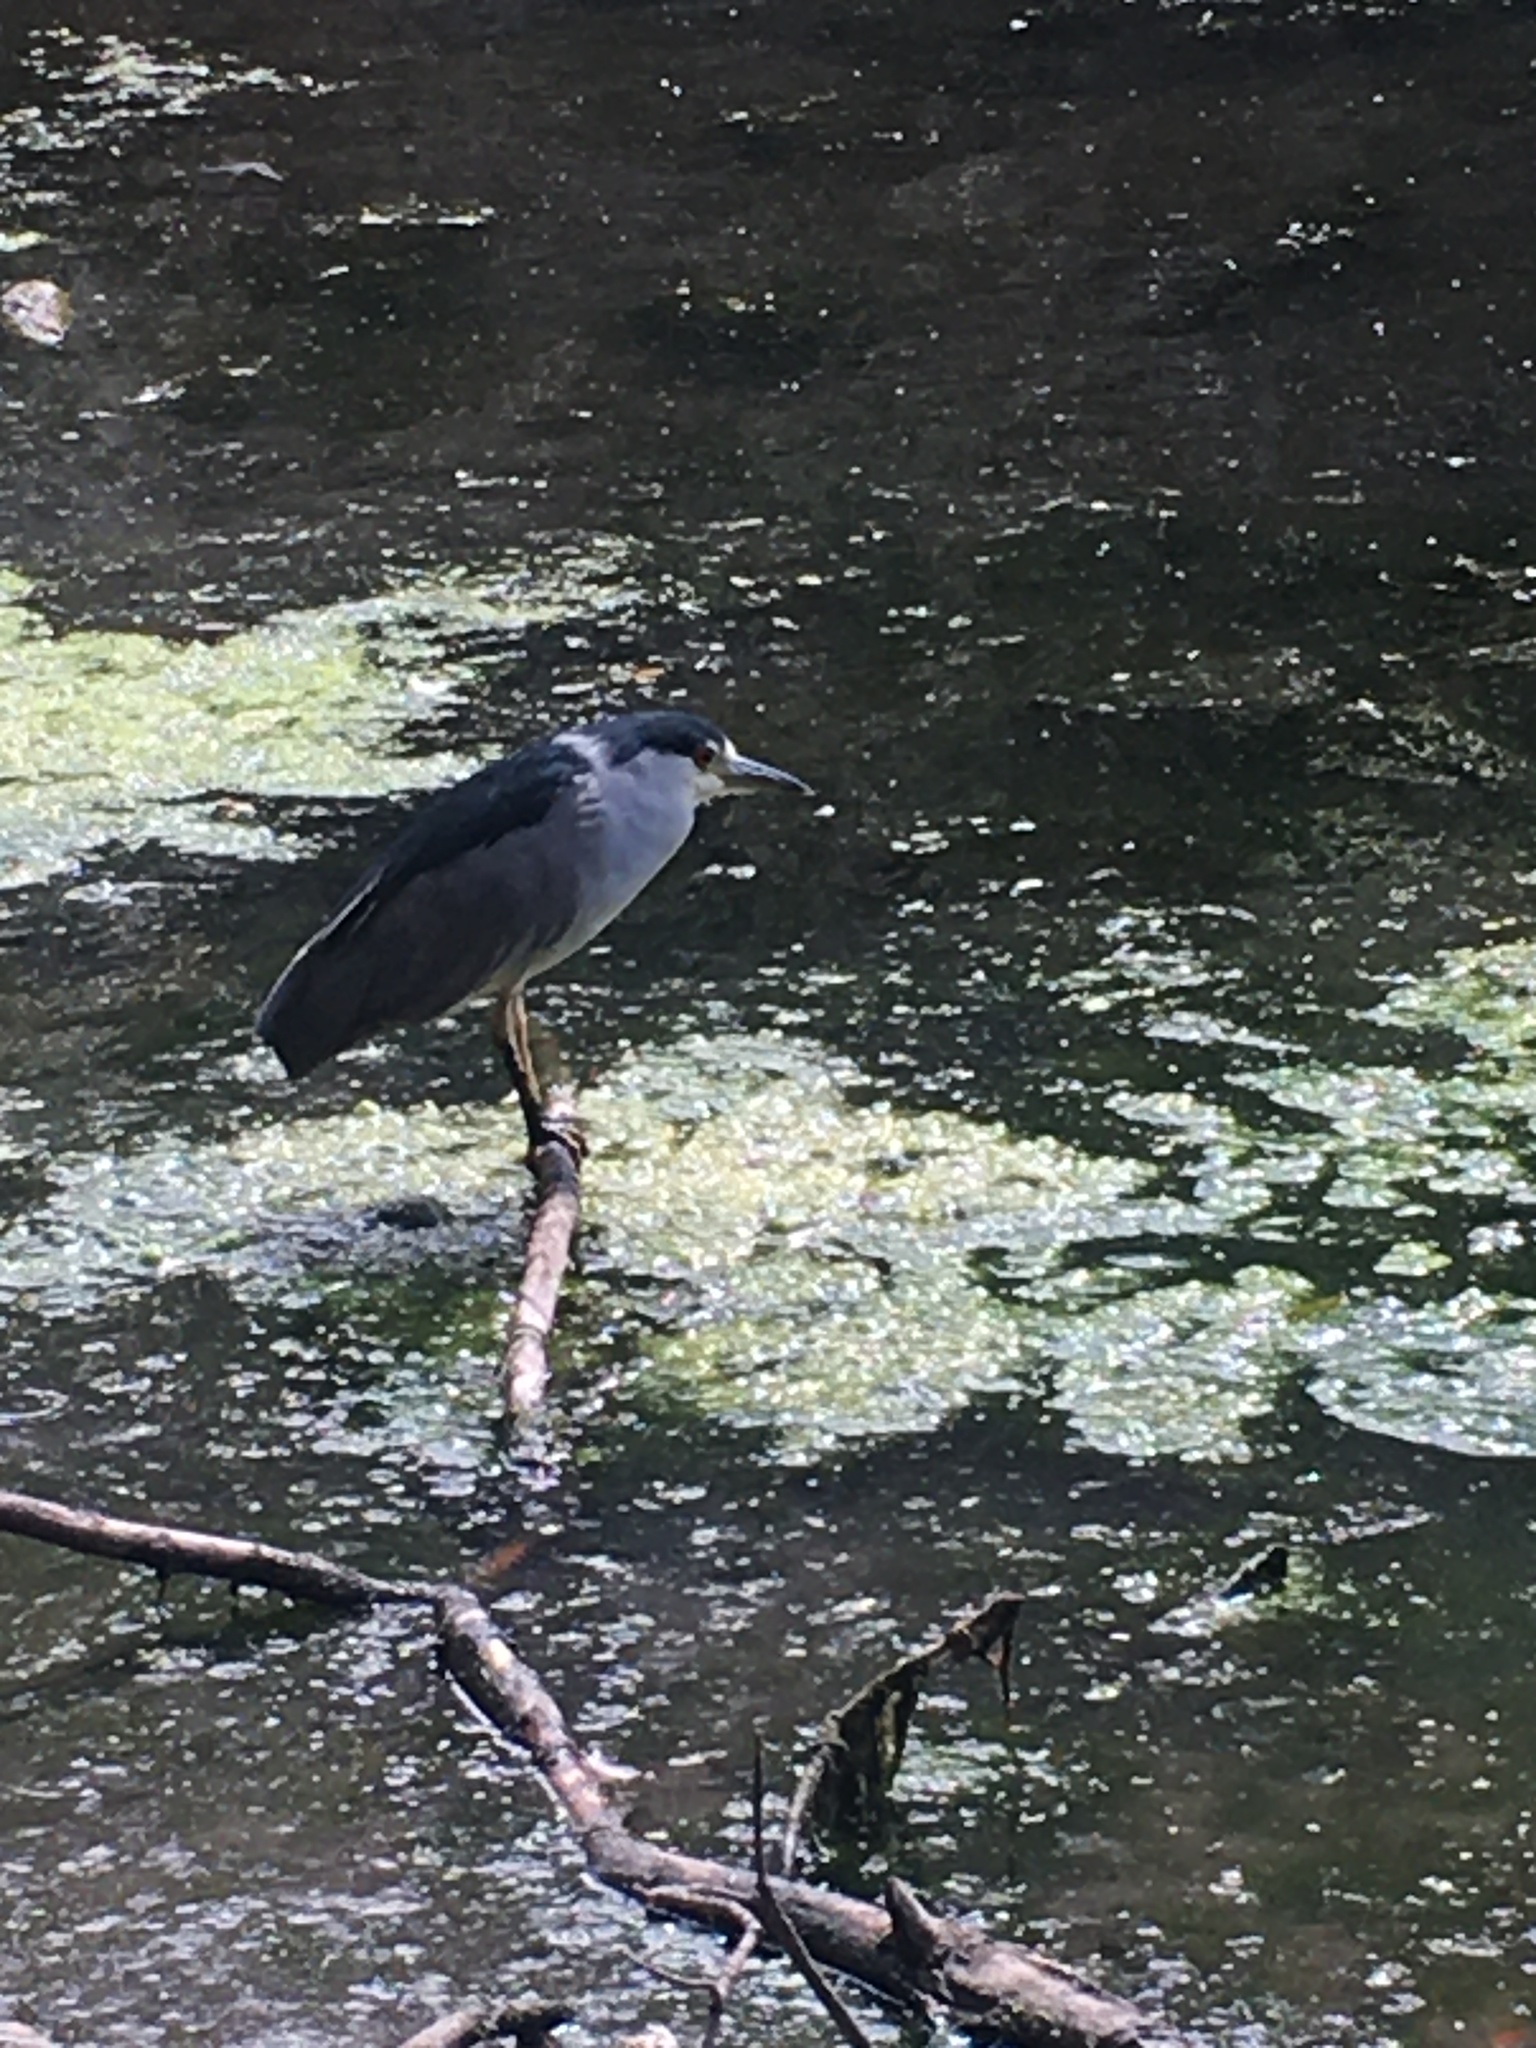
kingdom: Animalia
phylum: Chordata
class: Aves
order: Pelecaniformes
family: Ardeidae
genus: Nycticorax
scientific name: Nycticorax nycticorax
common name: Black-crowned night heron
